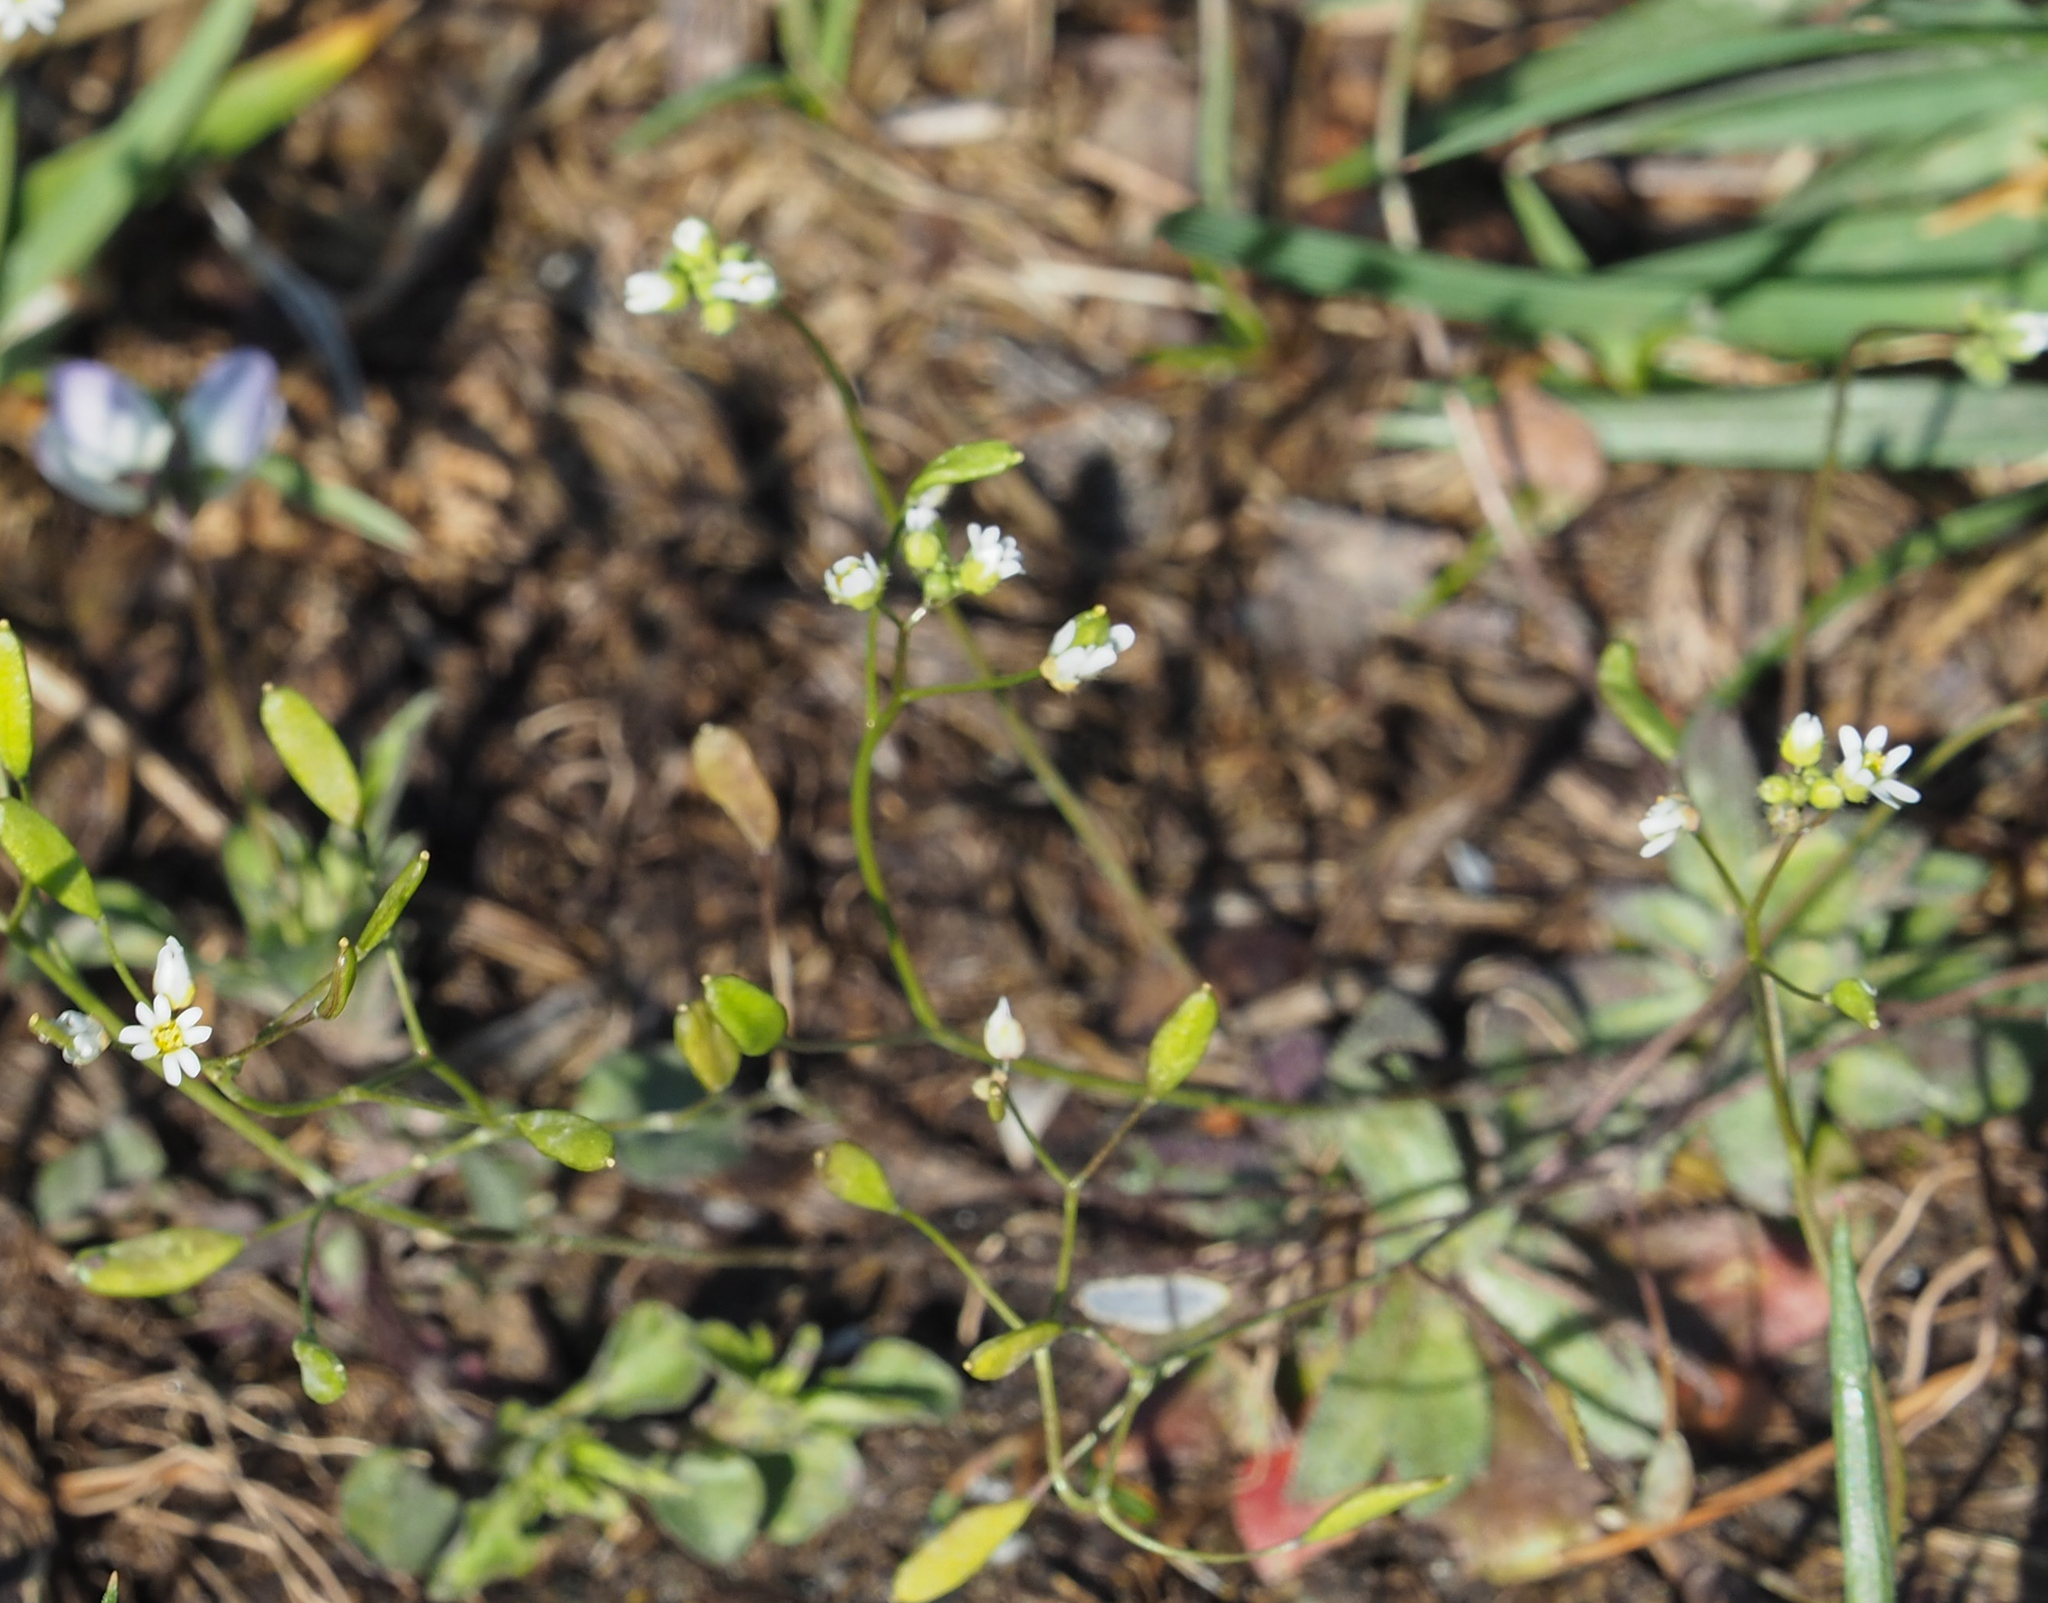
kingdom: Plantae
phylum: Tracheophyta
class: Magnoliopsida
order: Brassicales
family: Brassicaceae
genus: Draba
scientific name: Draba verna
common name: Spring draba
